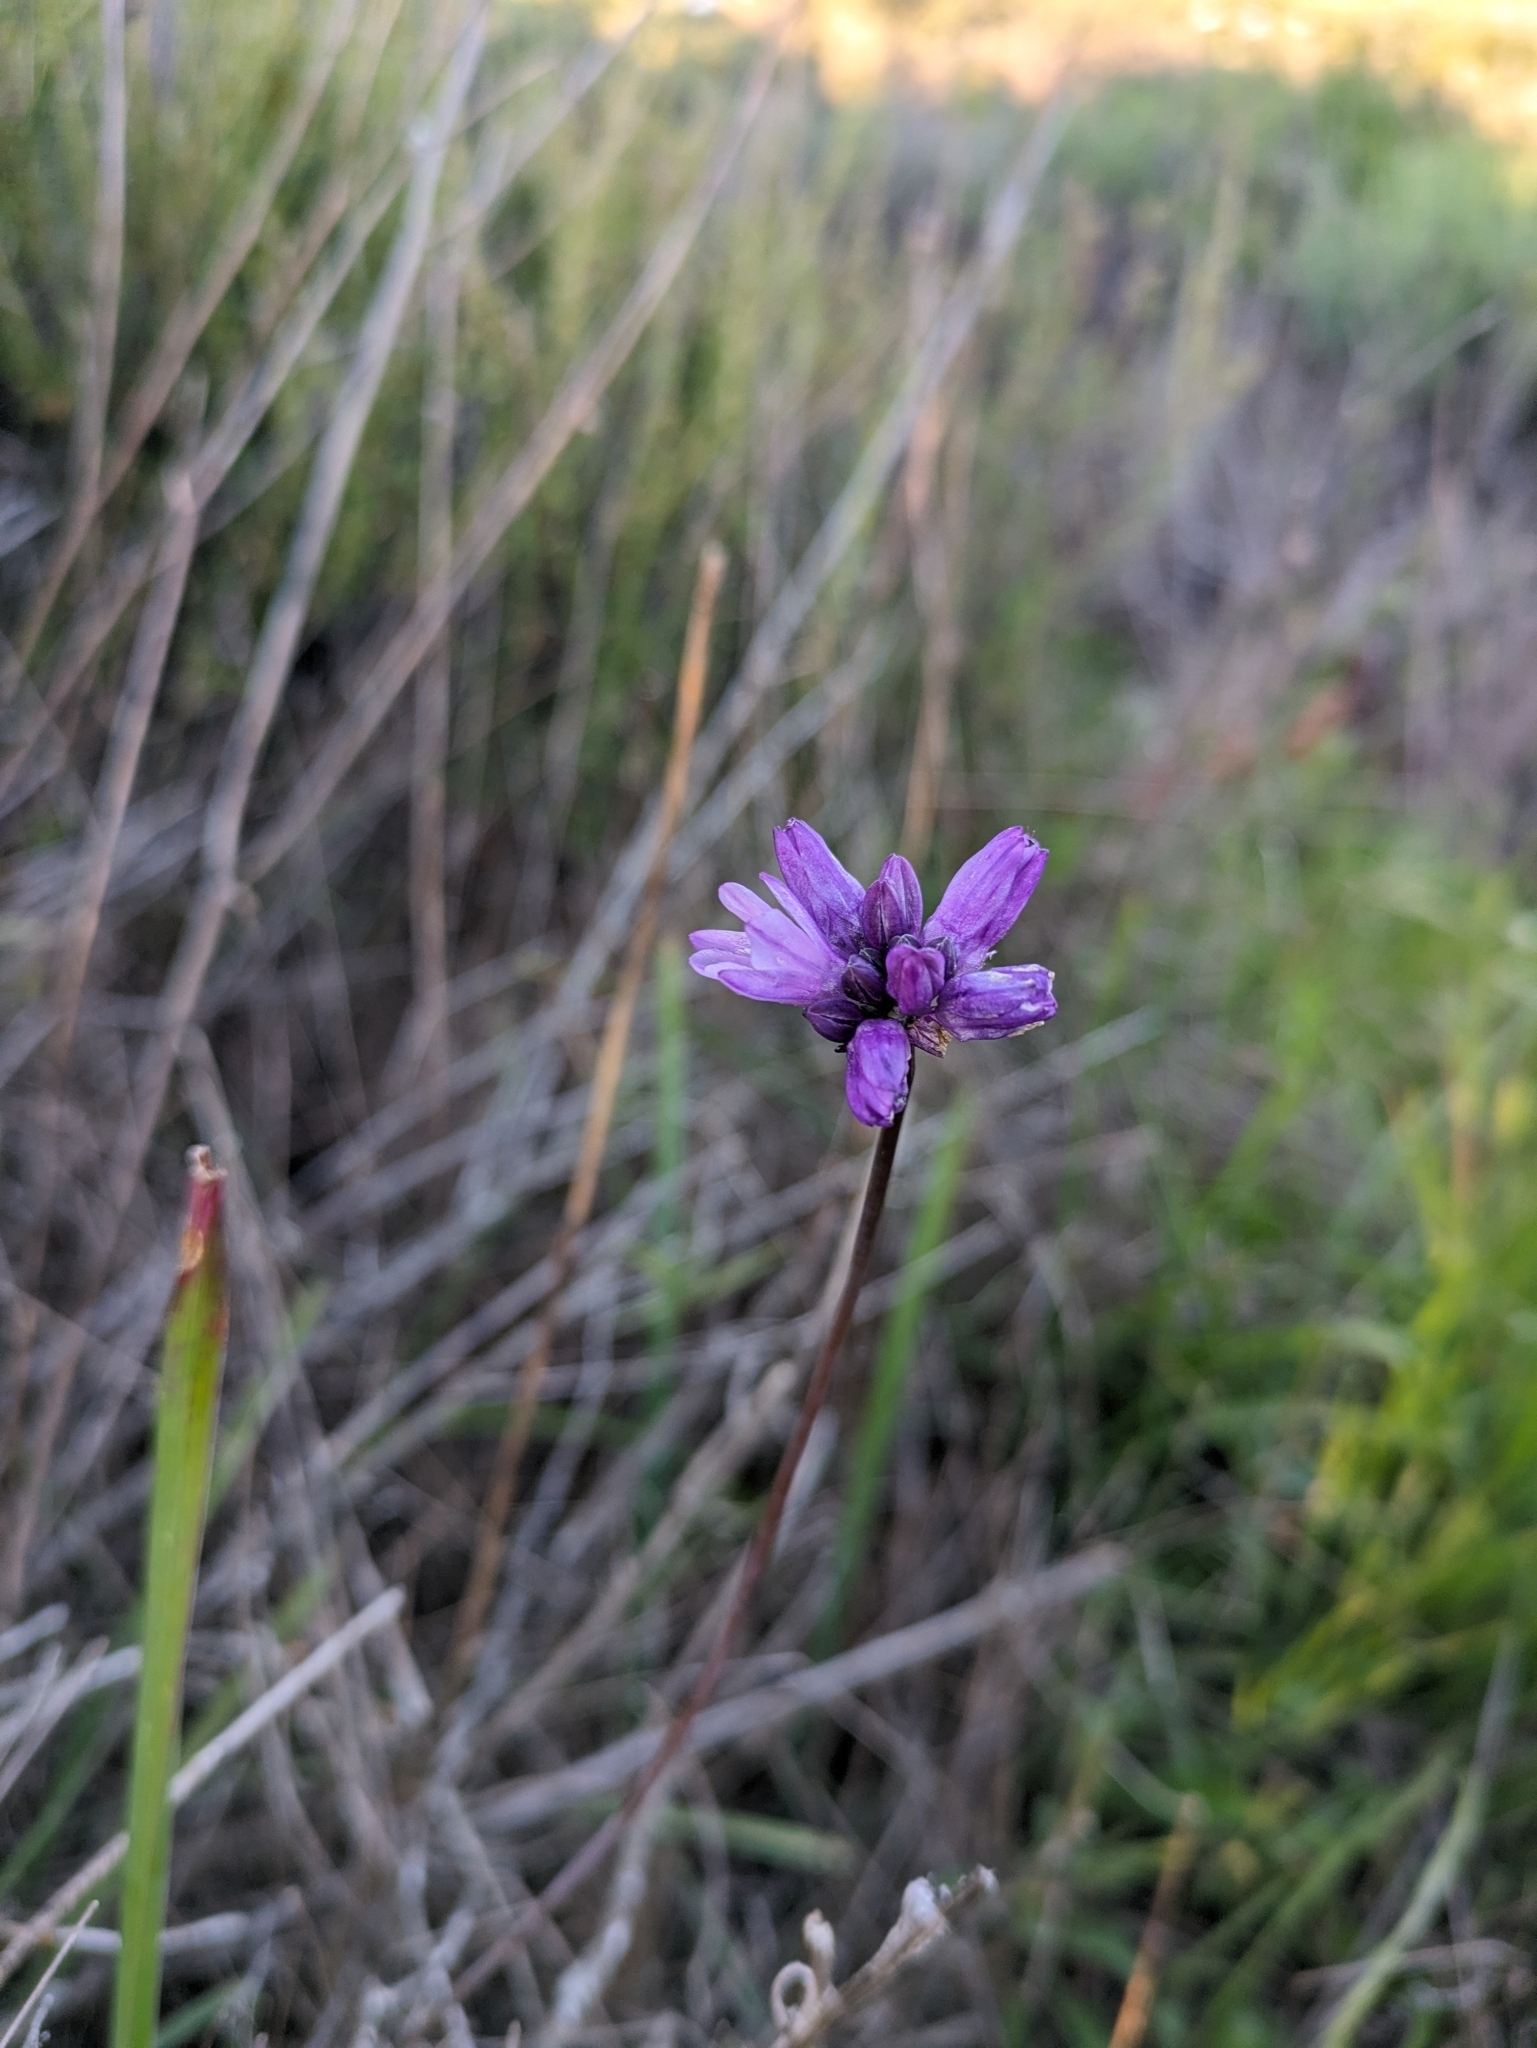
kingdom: Plantae
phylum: Tracheophyta
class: Liliopsida
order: Asparagales
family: Asparagaceae
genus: Dipterostemon
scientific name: Dipterostemon capitatus
